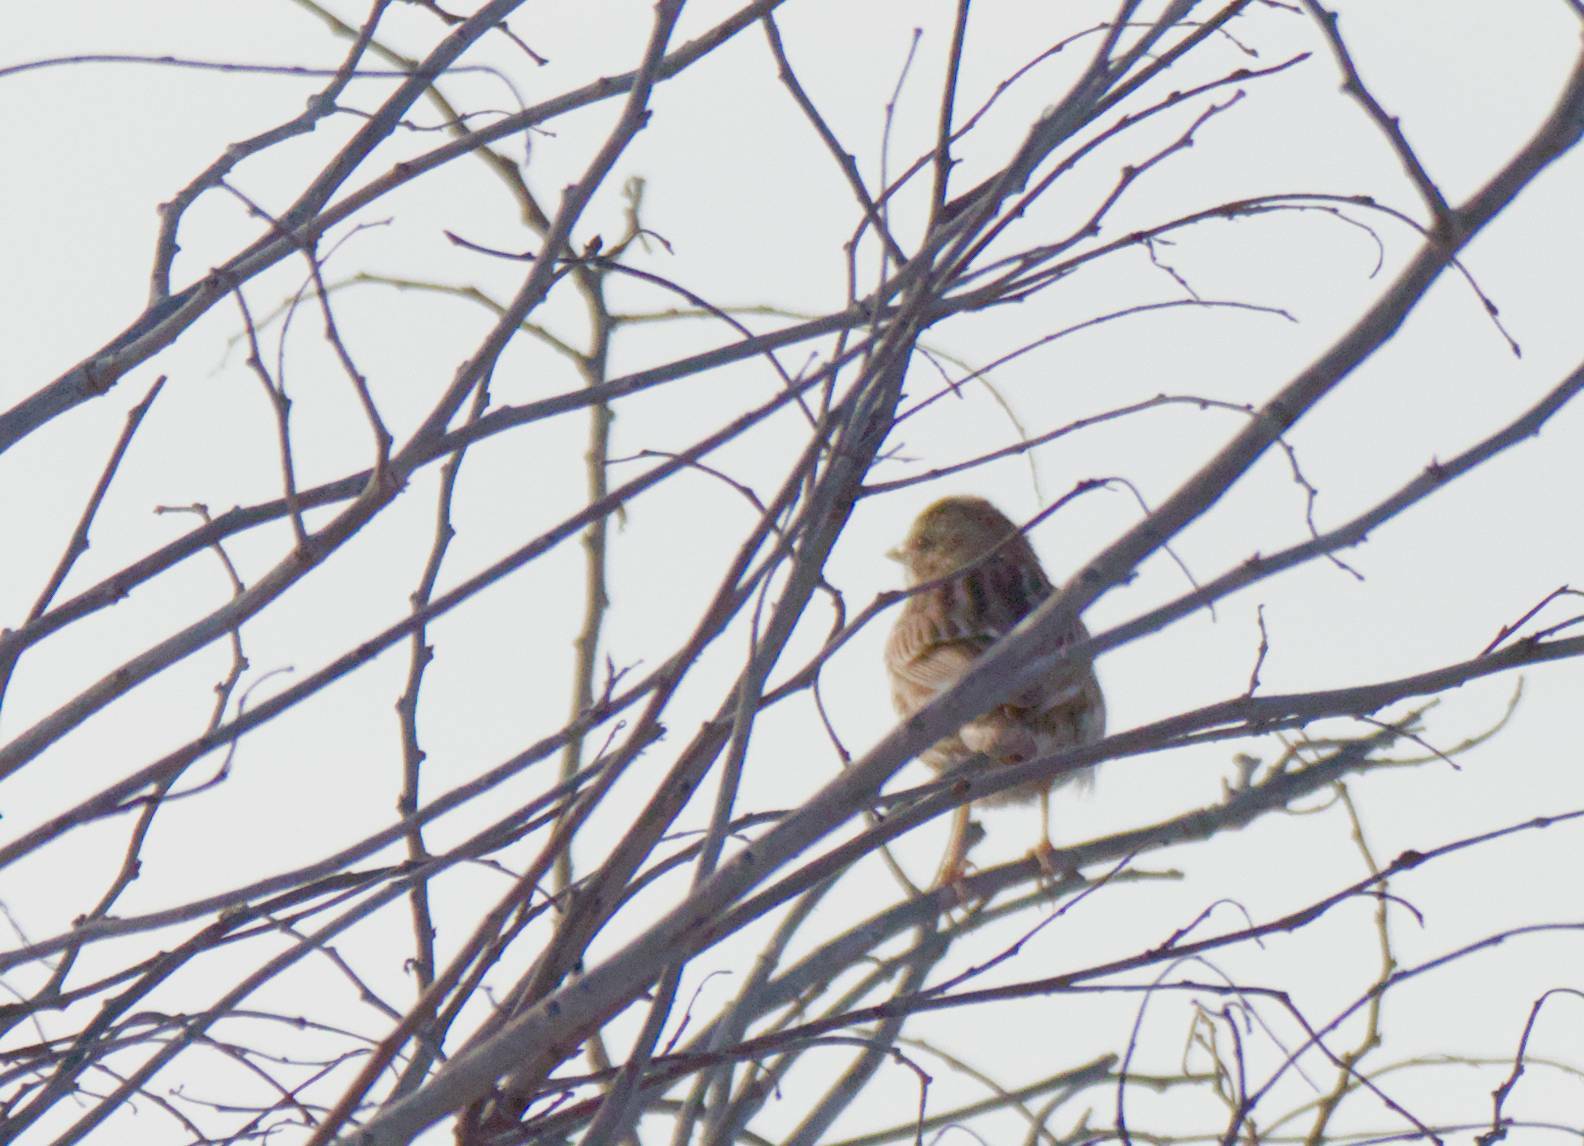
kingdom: Animalia
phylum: Chordata
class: Aves
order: Passeriformes
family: Passerellidae
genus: Passerculus
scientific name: Passerculus sandwichensis
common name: Savannah sparrow
